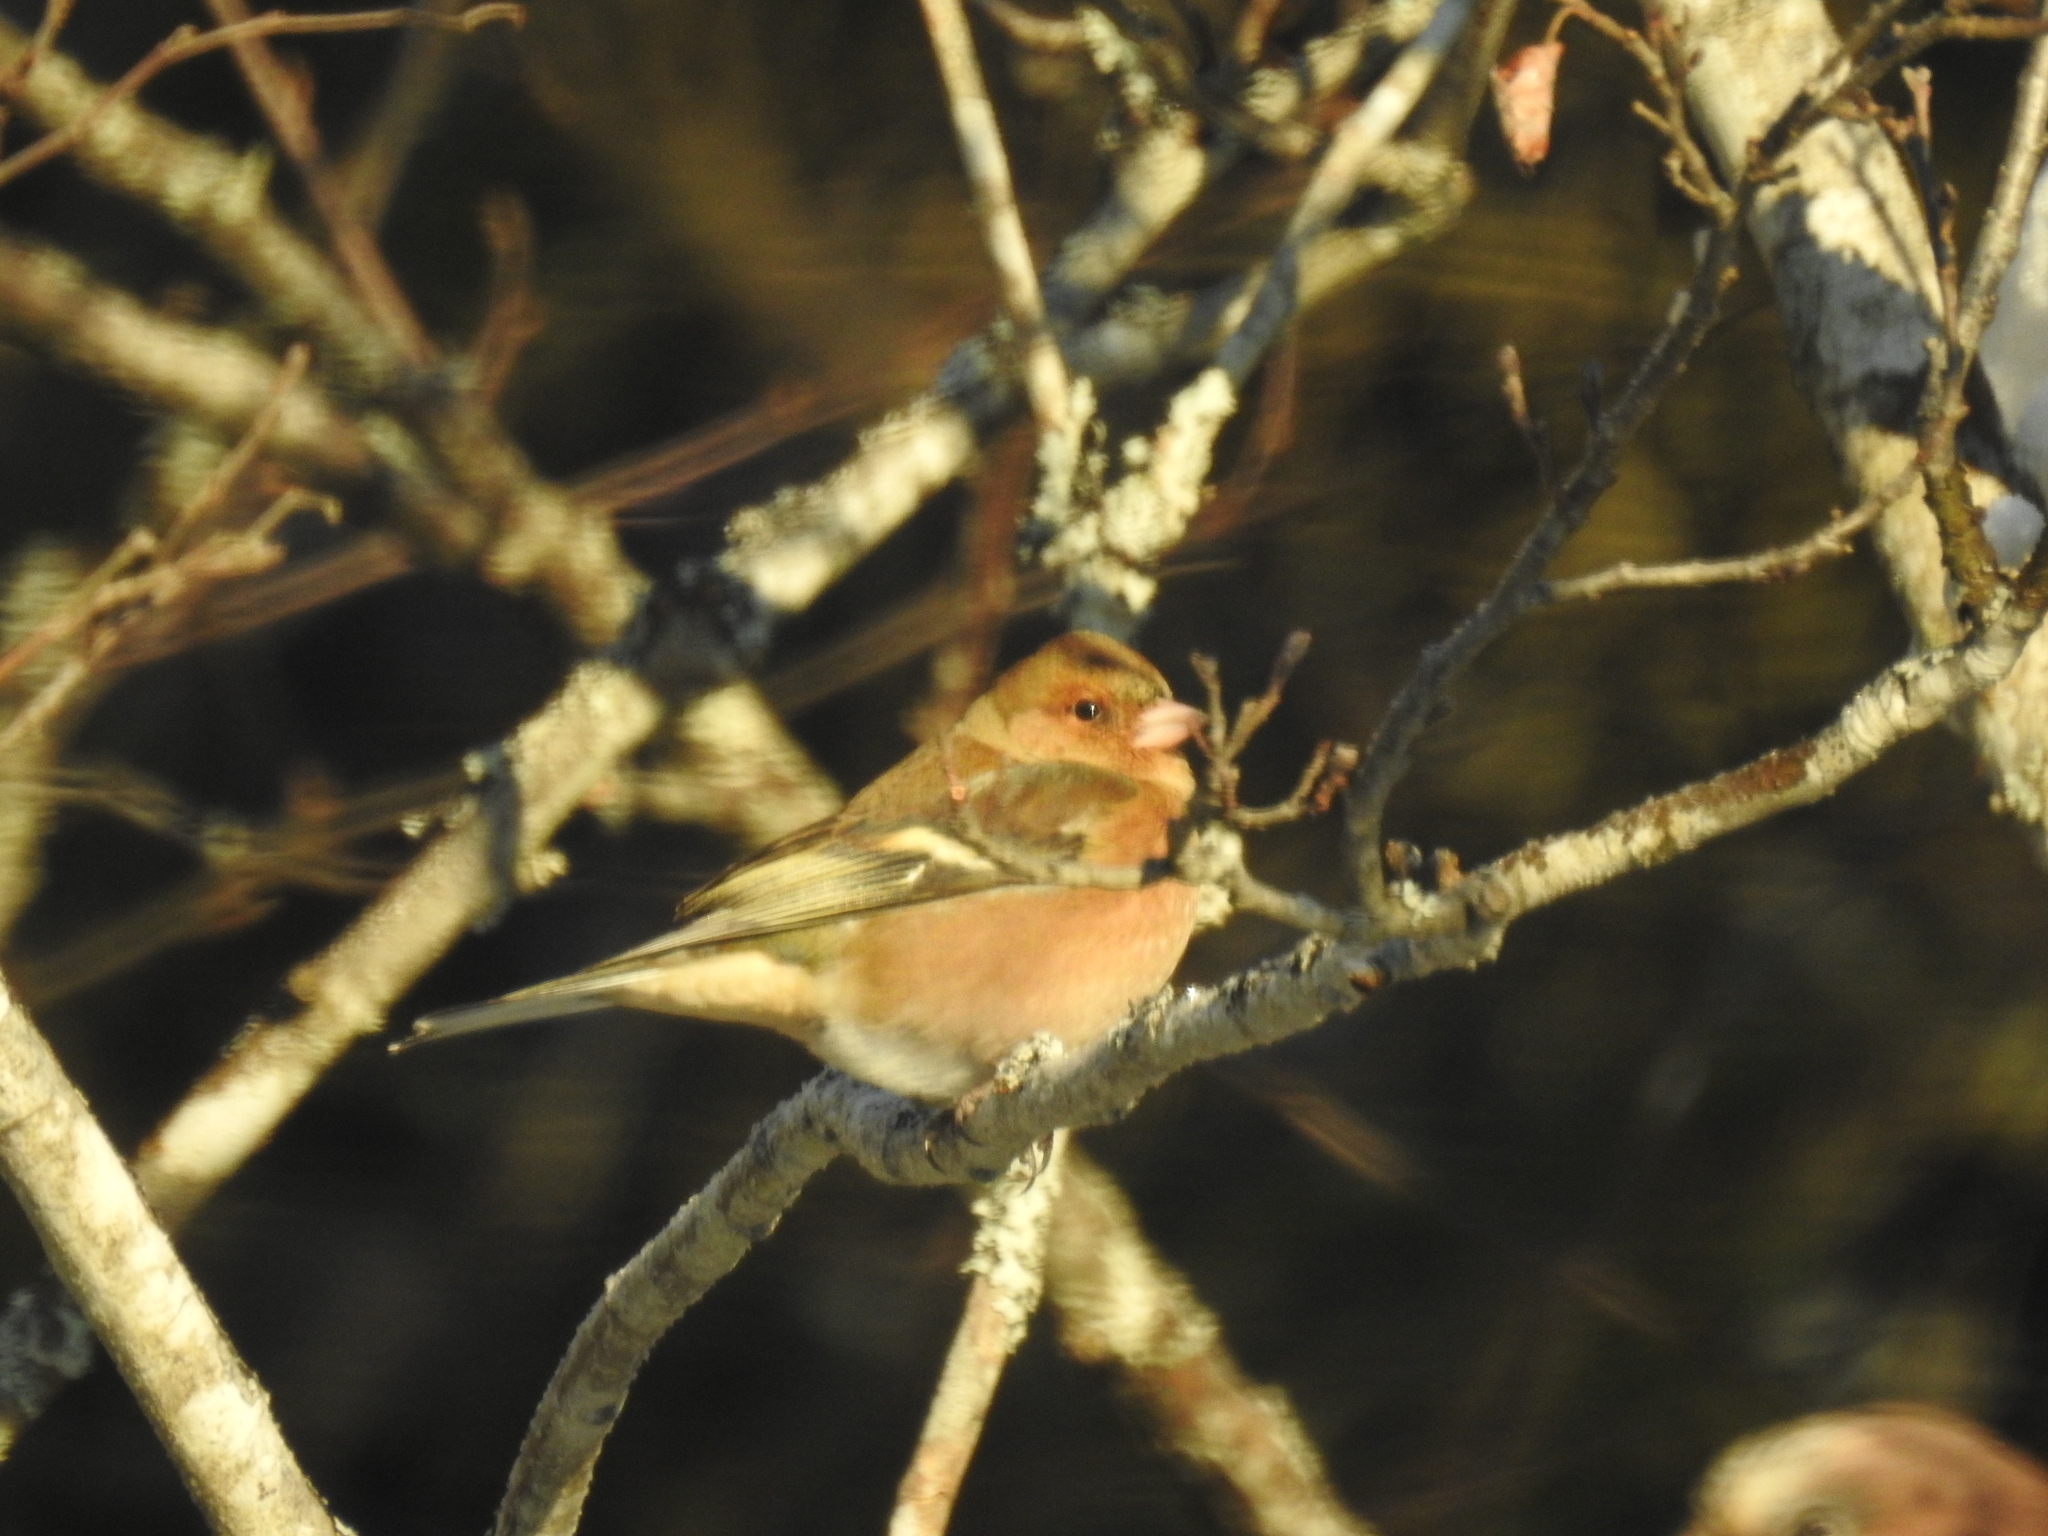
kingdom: Animalia
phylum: Chordata
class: Aves
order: Passeriformes
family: Fringillidae
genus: Fringilla
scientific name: Fringilla coelebs
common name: Common chaffinch
